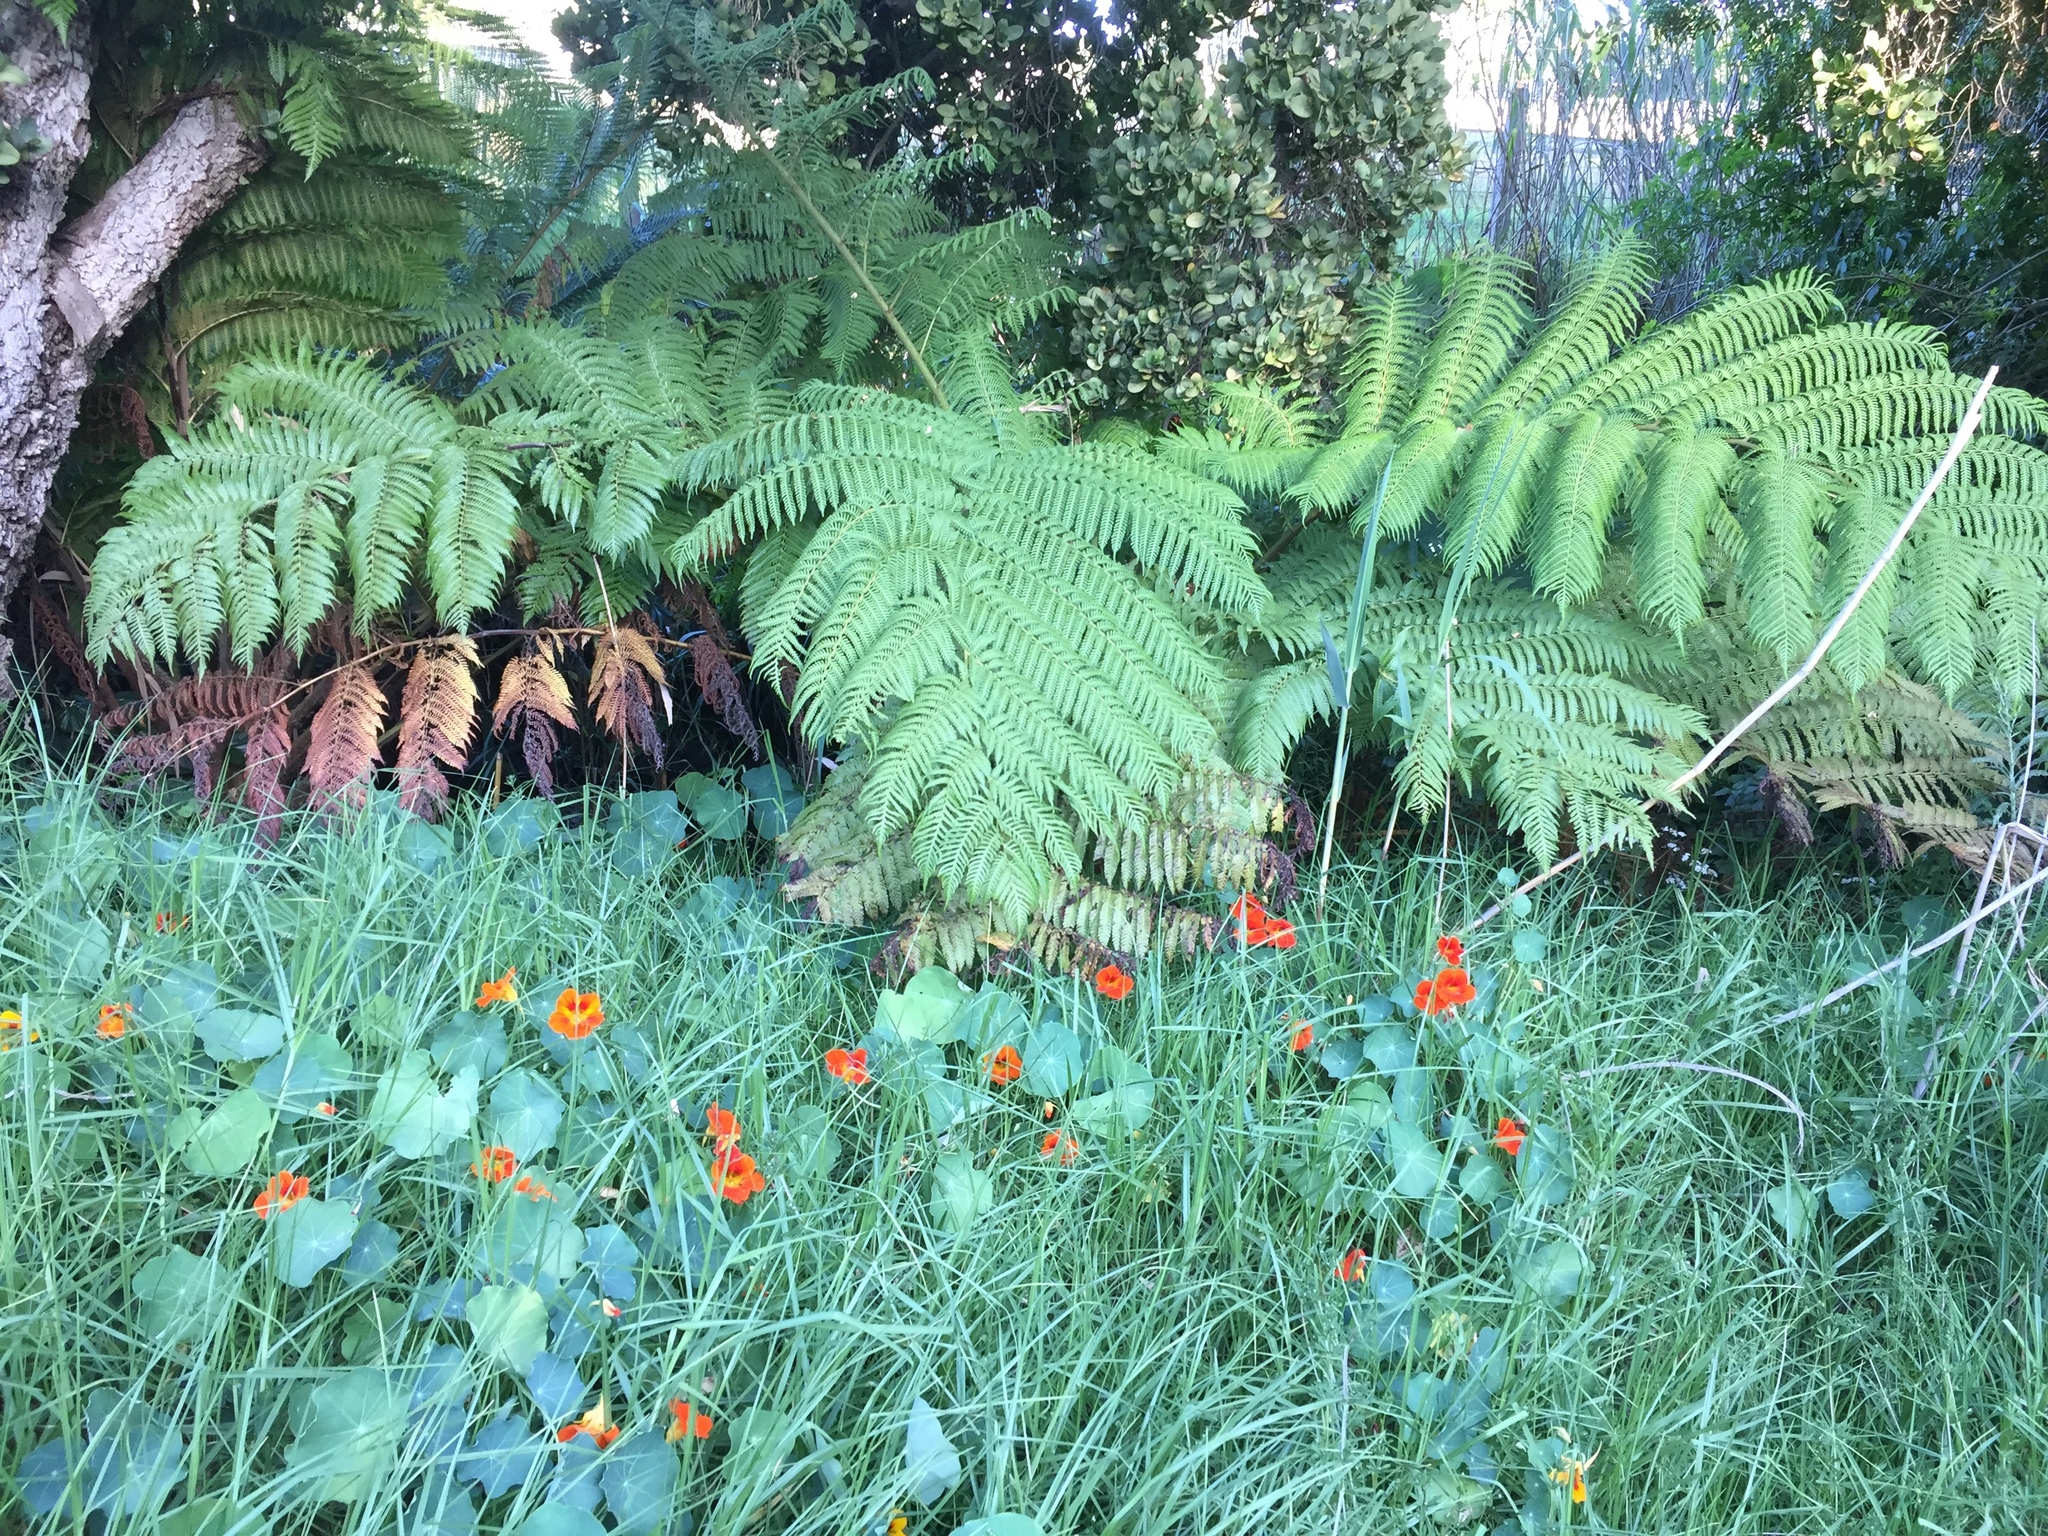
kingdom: Plantae
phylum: Tracheophyta
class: Polypodiopsida
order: Cyatheales
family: Cyatheaceae
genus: Sphaeropteris
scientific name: Sphaeropteris cooperi
